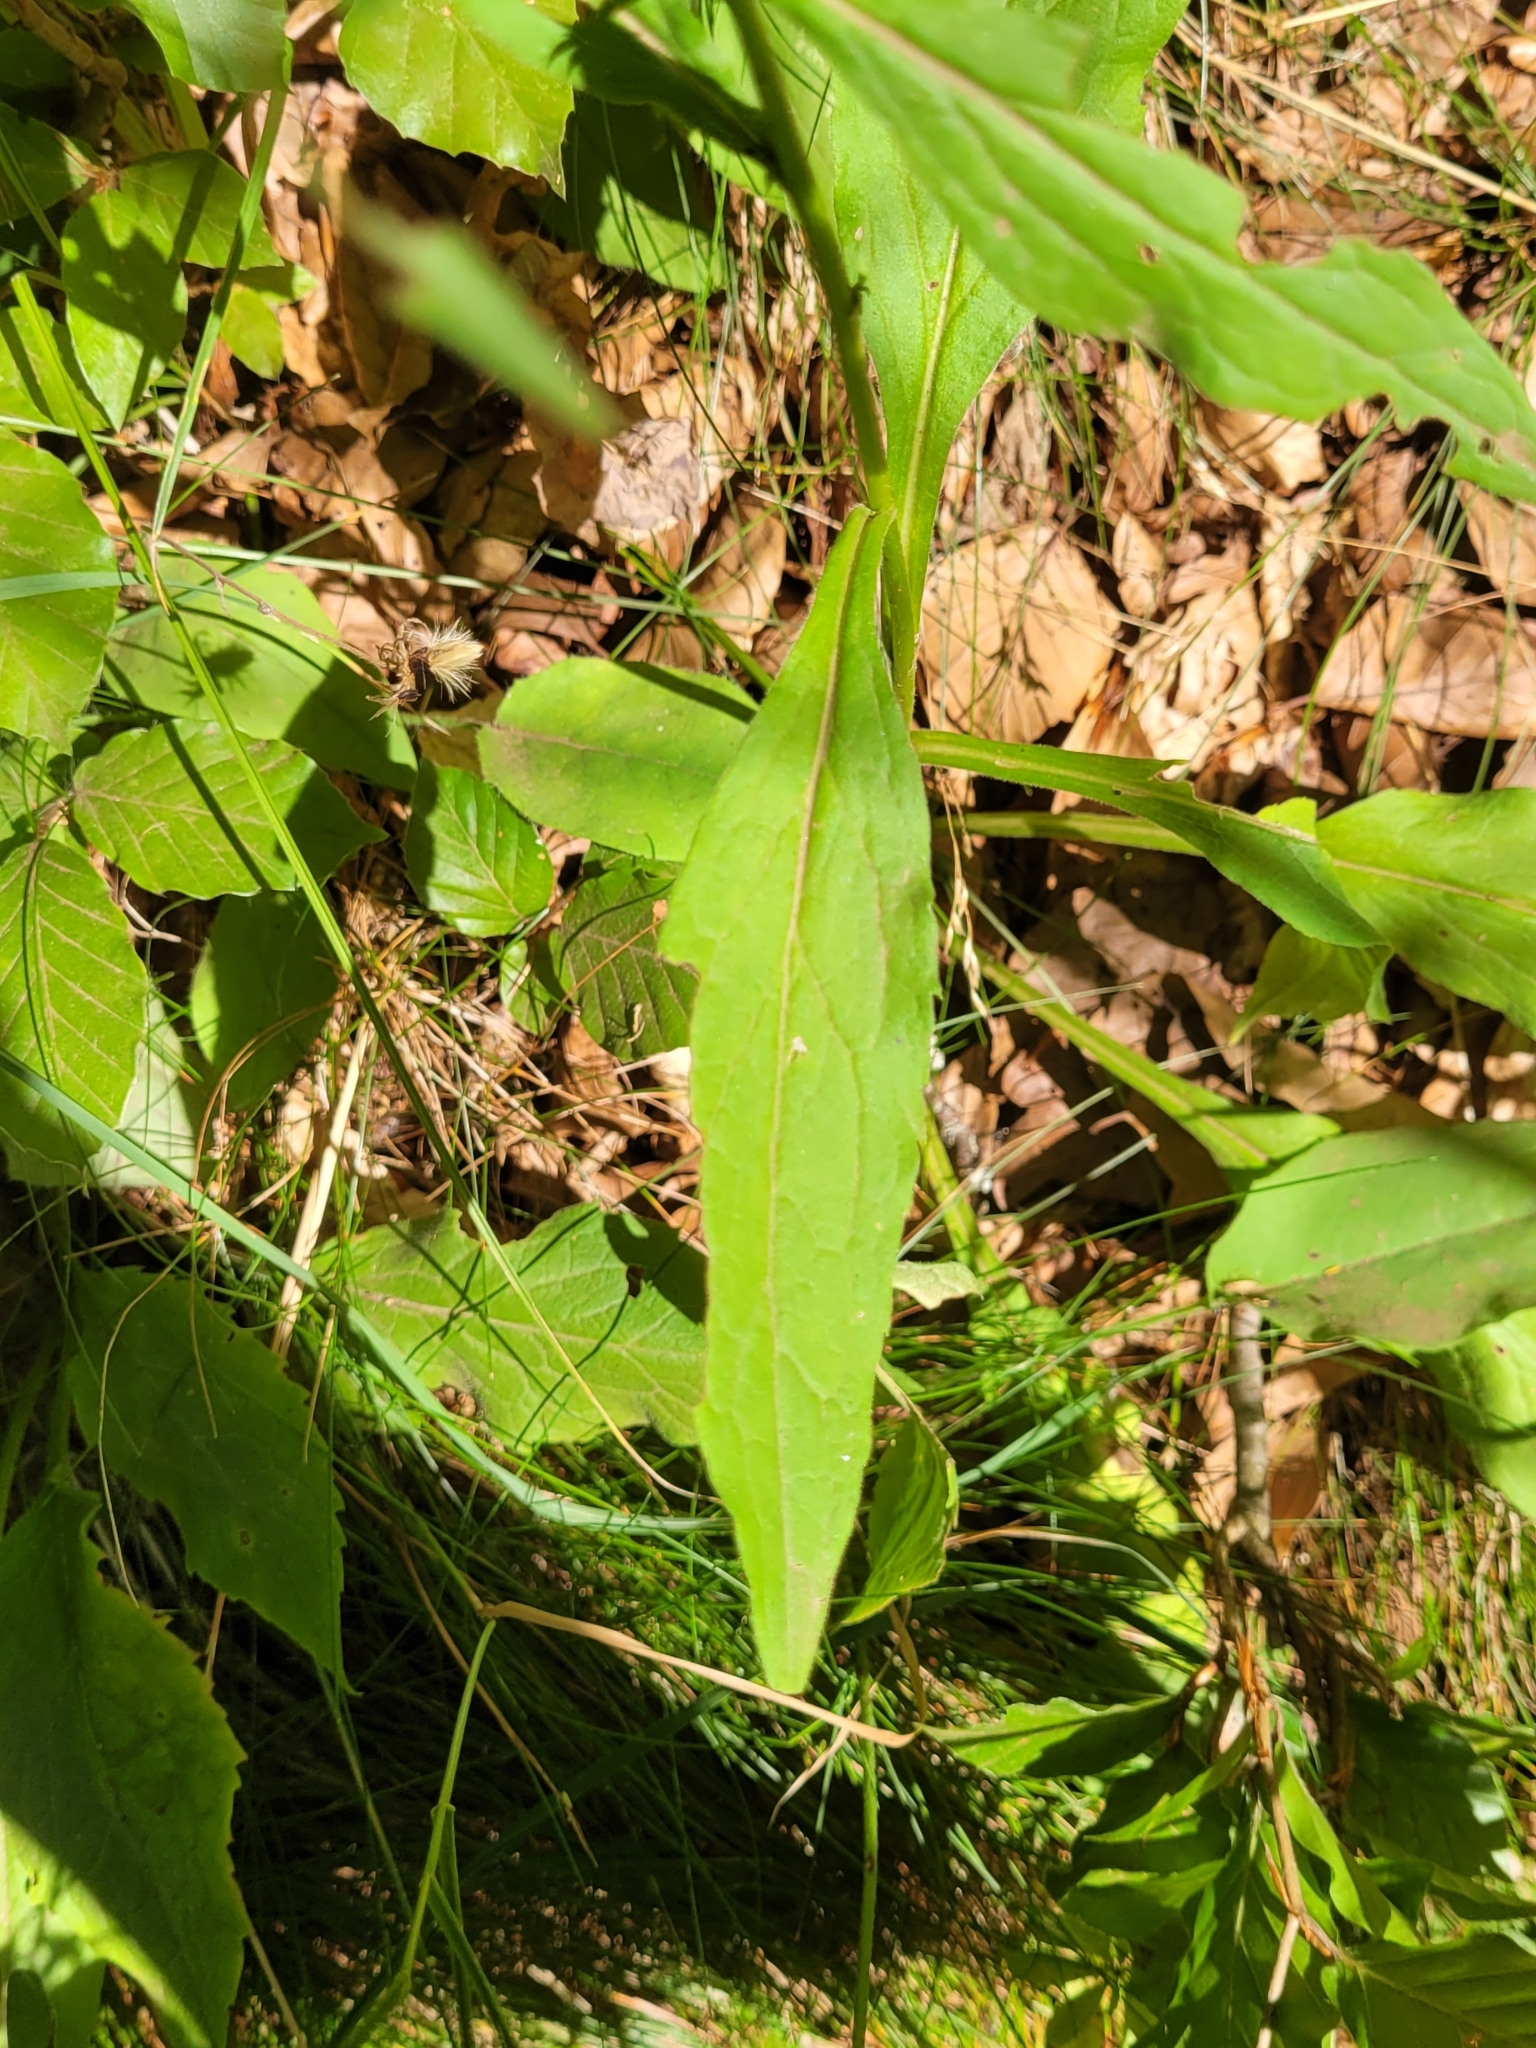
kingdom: Plantae
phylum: Tracheophyta
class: Magnoliopsida
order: Asterales
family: Asteraceae
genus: Solidago
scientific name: Solidago virgaurea
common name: Goldenrod
